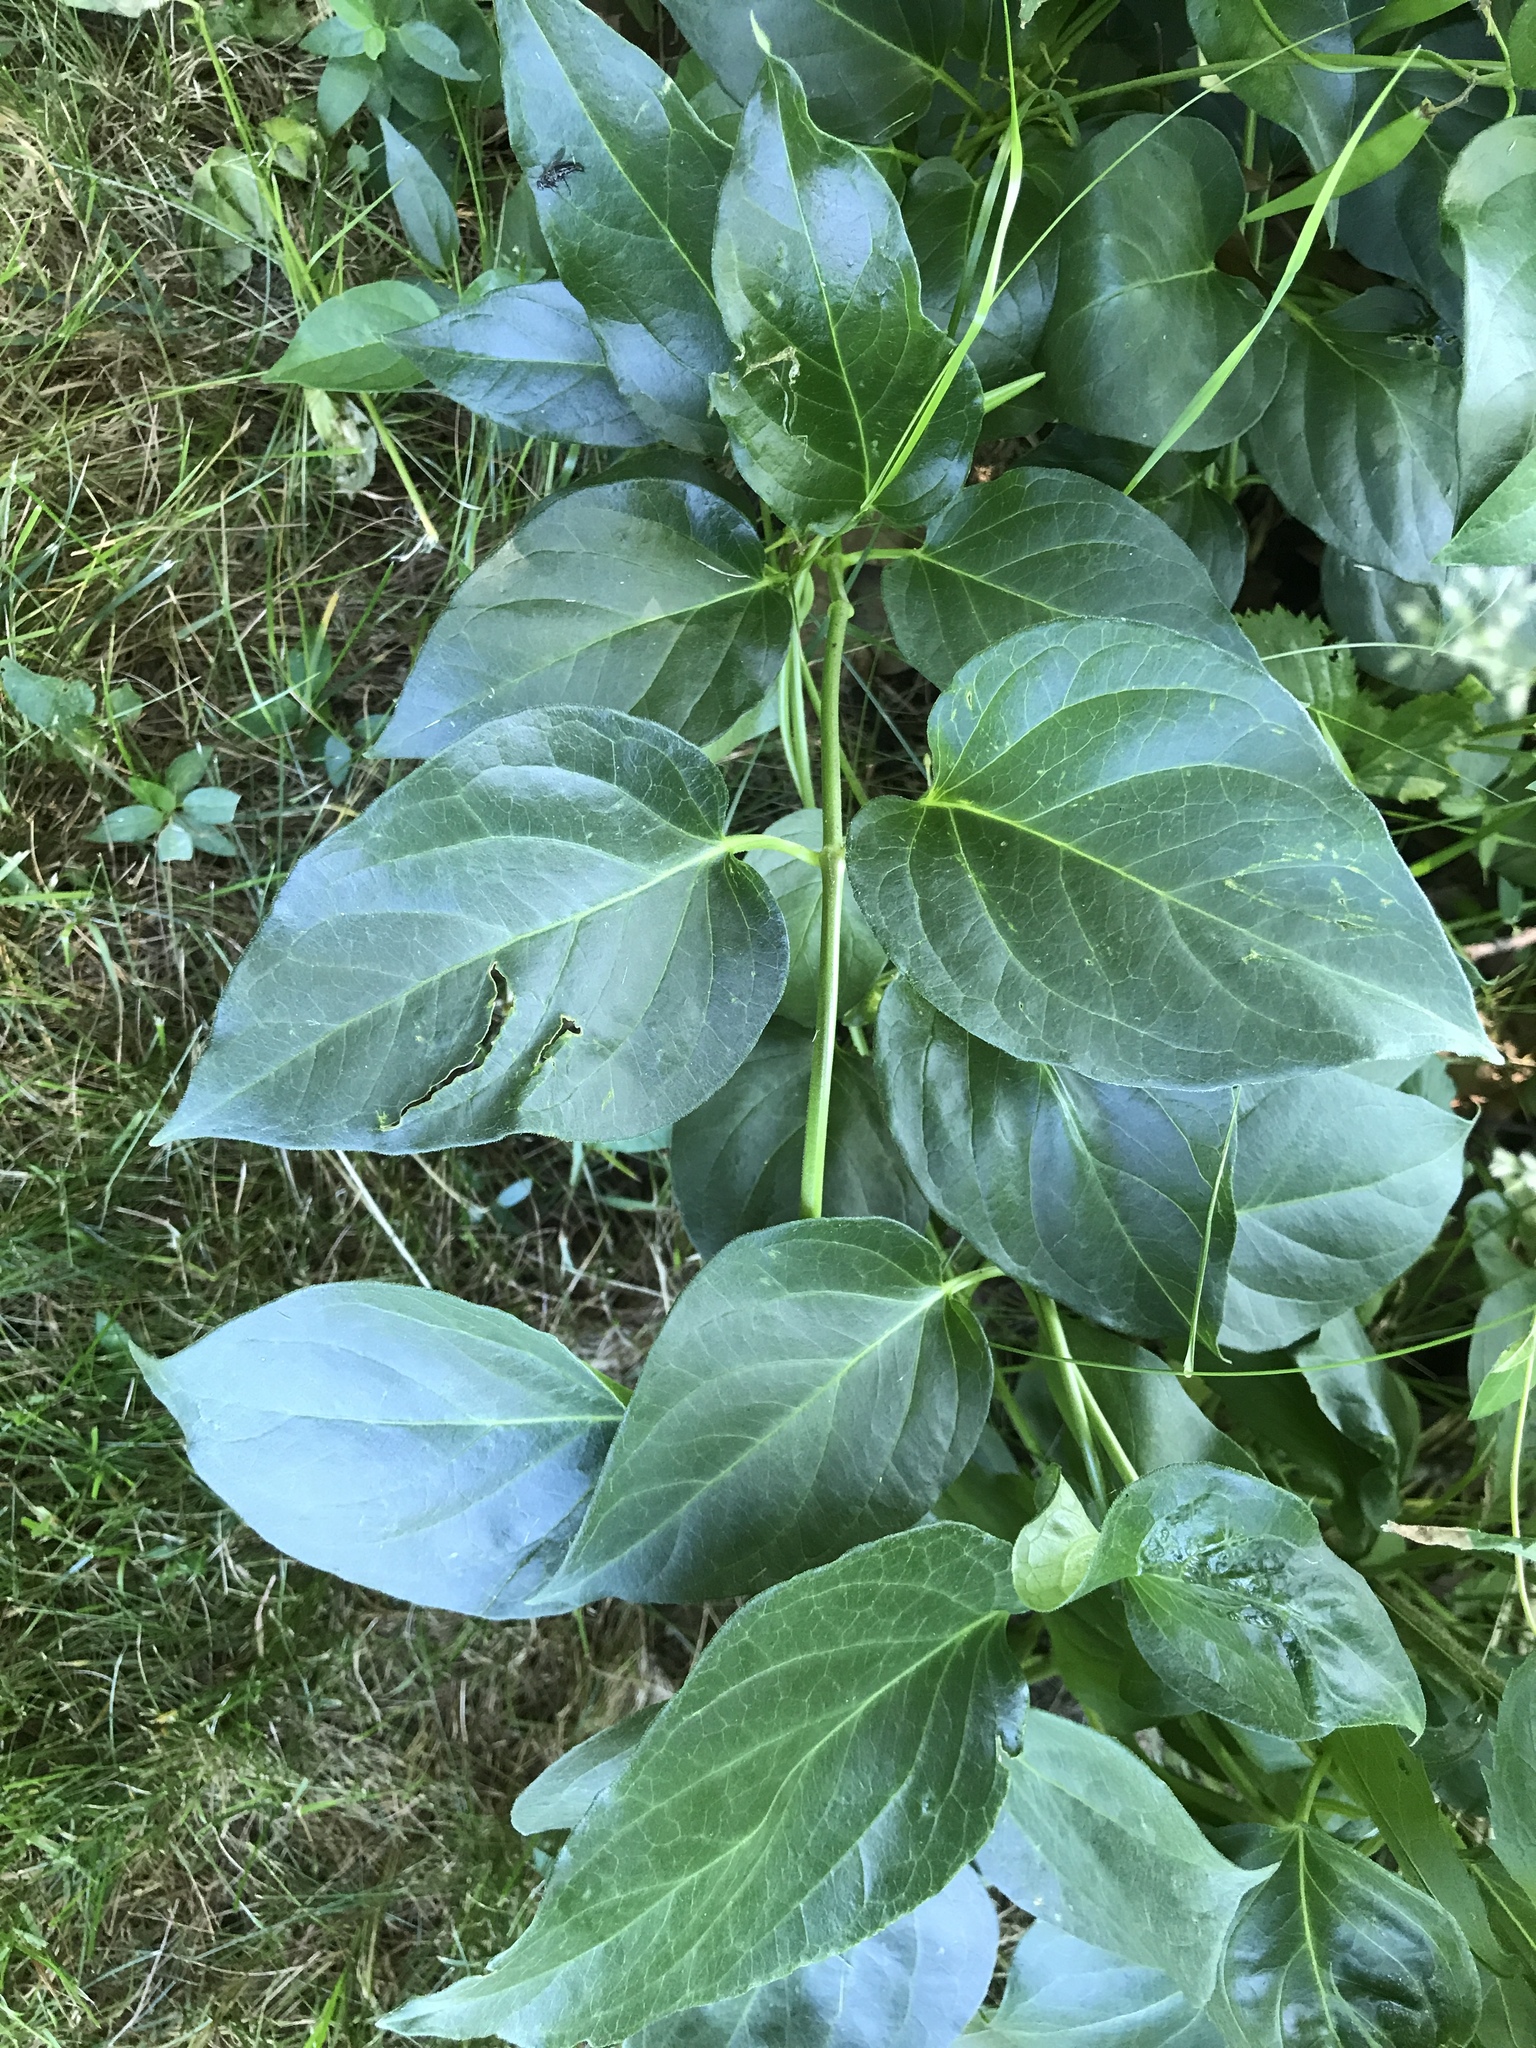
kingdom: Plantae
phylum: Tracheophyta
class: Magnoliopsida
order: Gentianales
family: Apocynaceae
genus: Vincetoxicum
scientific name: Vincetoxicum nigrum
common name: Black swallow-wort
